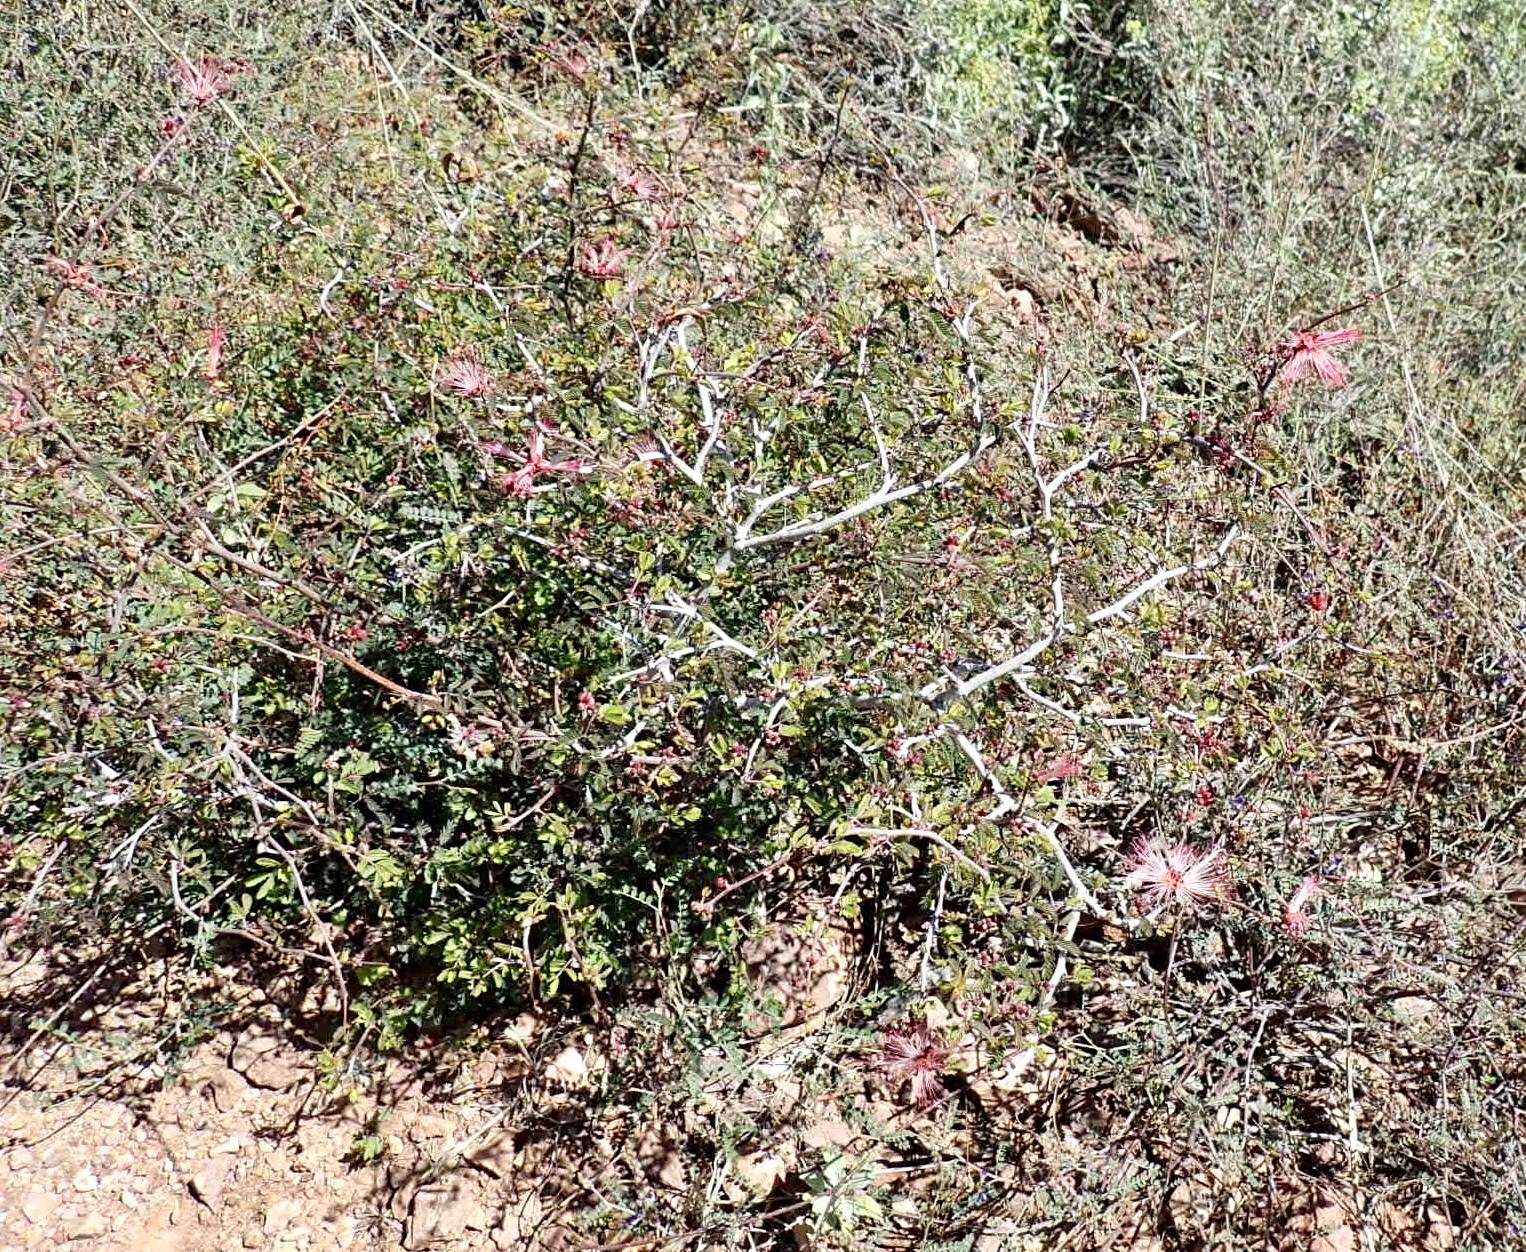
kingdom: Plantae
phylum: Tracheophyta
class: Magnoliopsida
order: Fabales
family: Fabaceae
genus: Calliandra
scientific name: Calliandra eriophylla
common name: Fairy-duster
